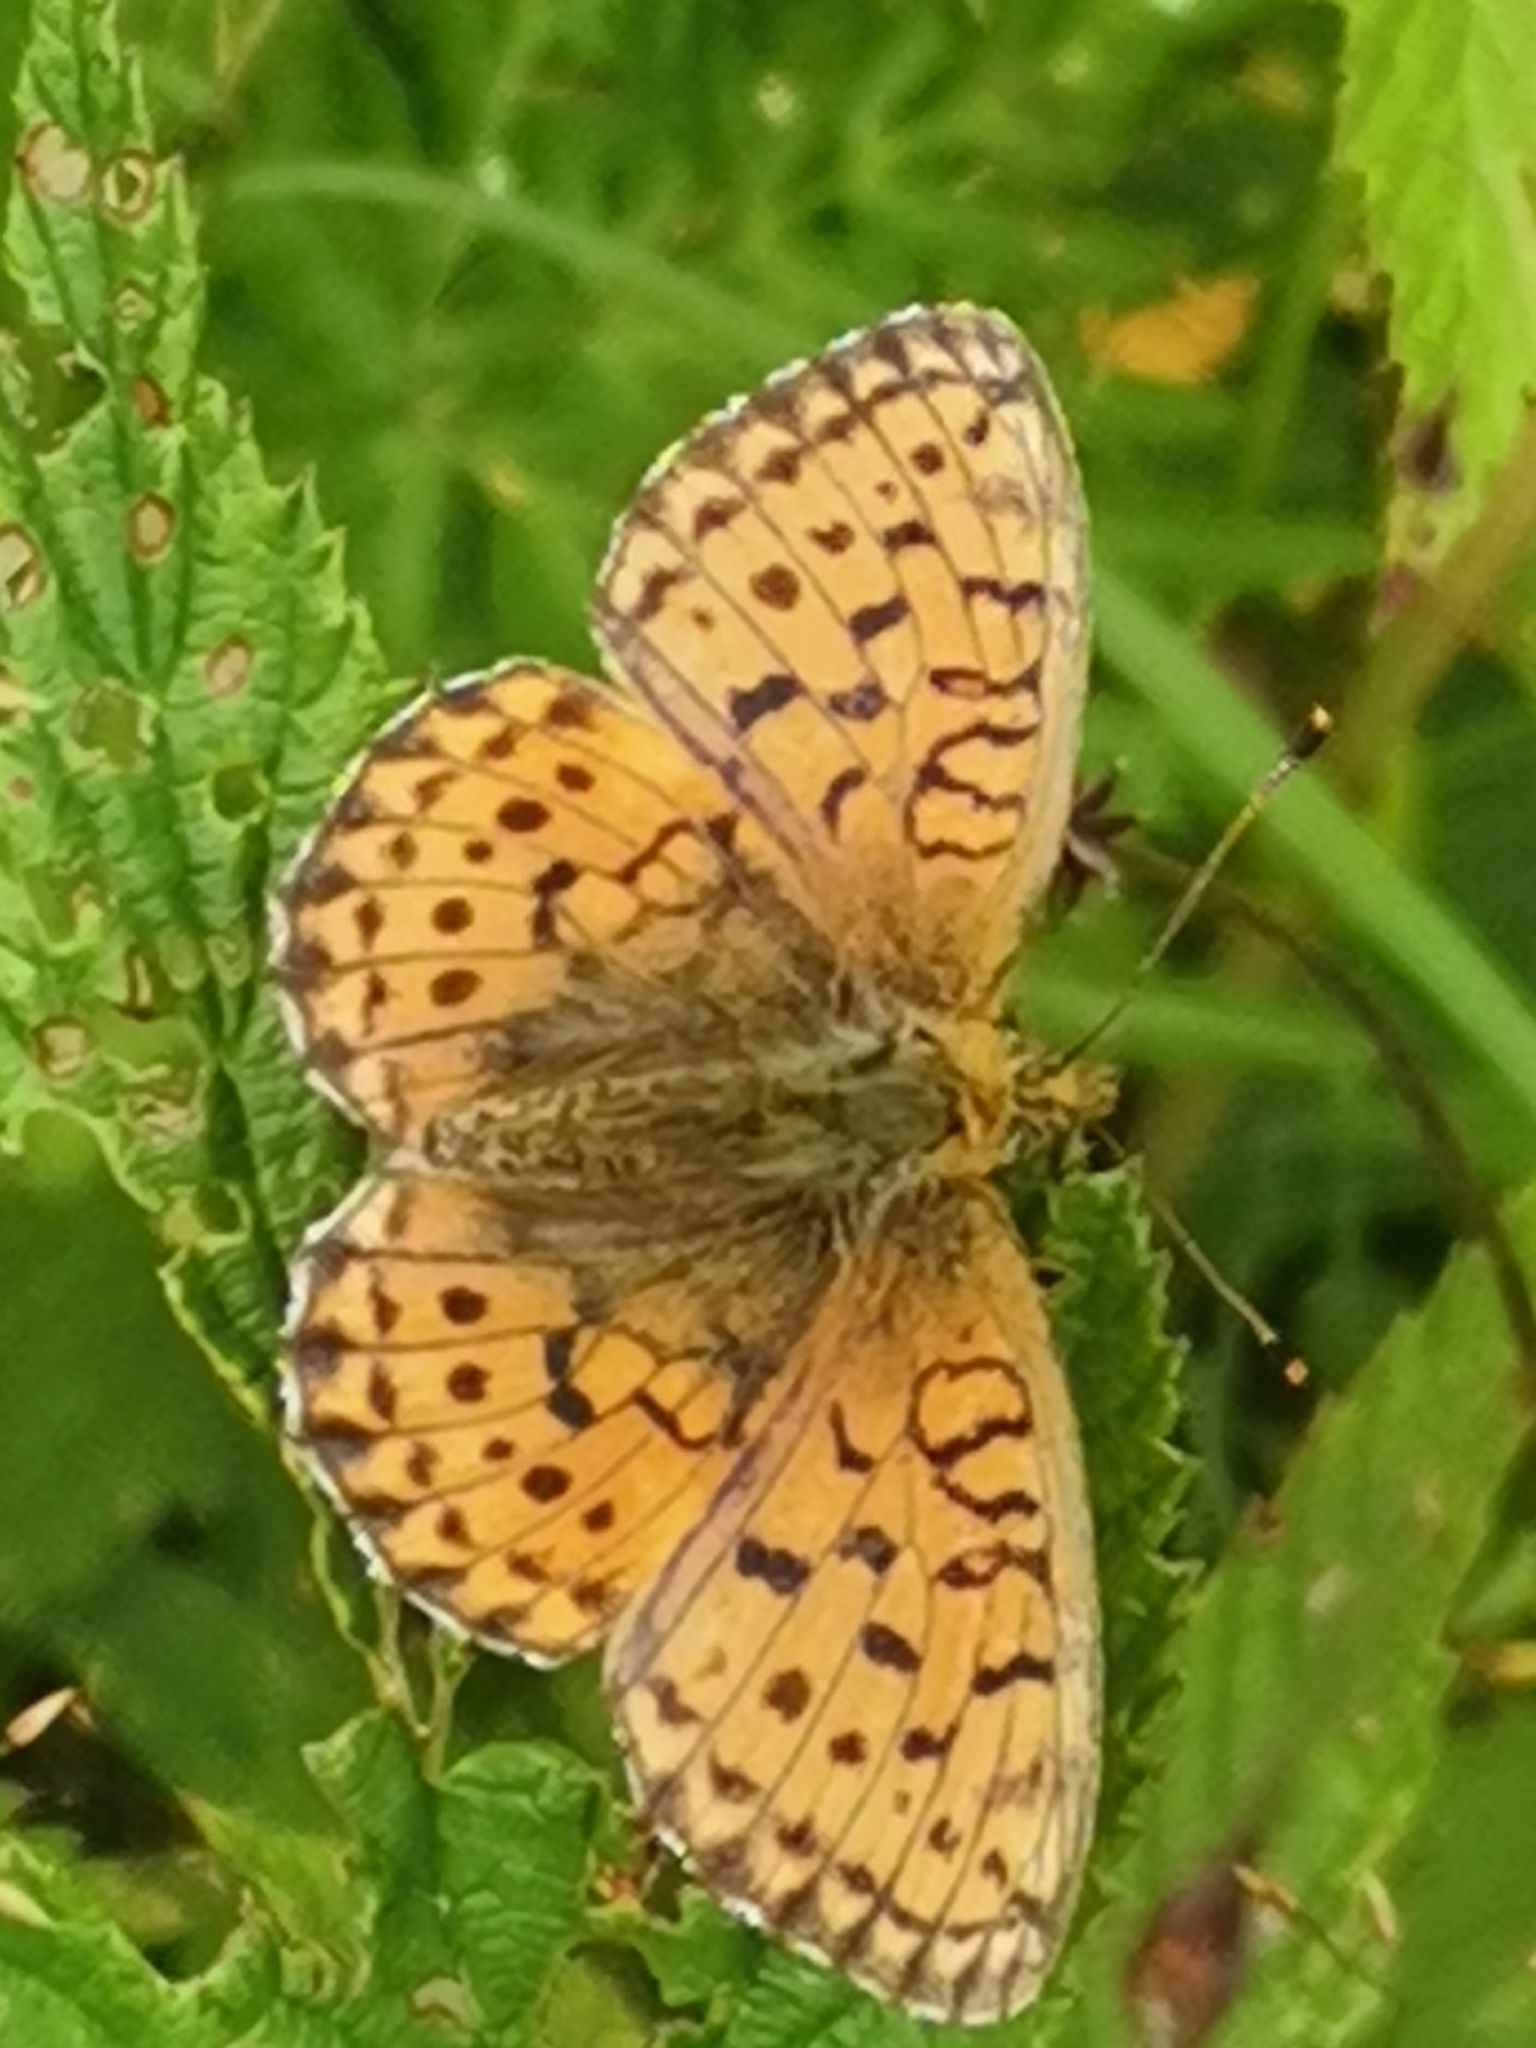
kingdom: Animalia
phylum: Arthropoda
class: Insecta
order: Lepidoptera
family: Nymphalidae
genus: Brenthis
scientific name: Brenthis ino
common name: Lesser marbled fritillary
